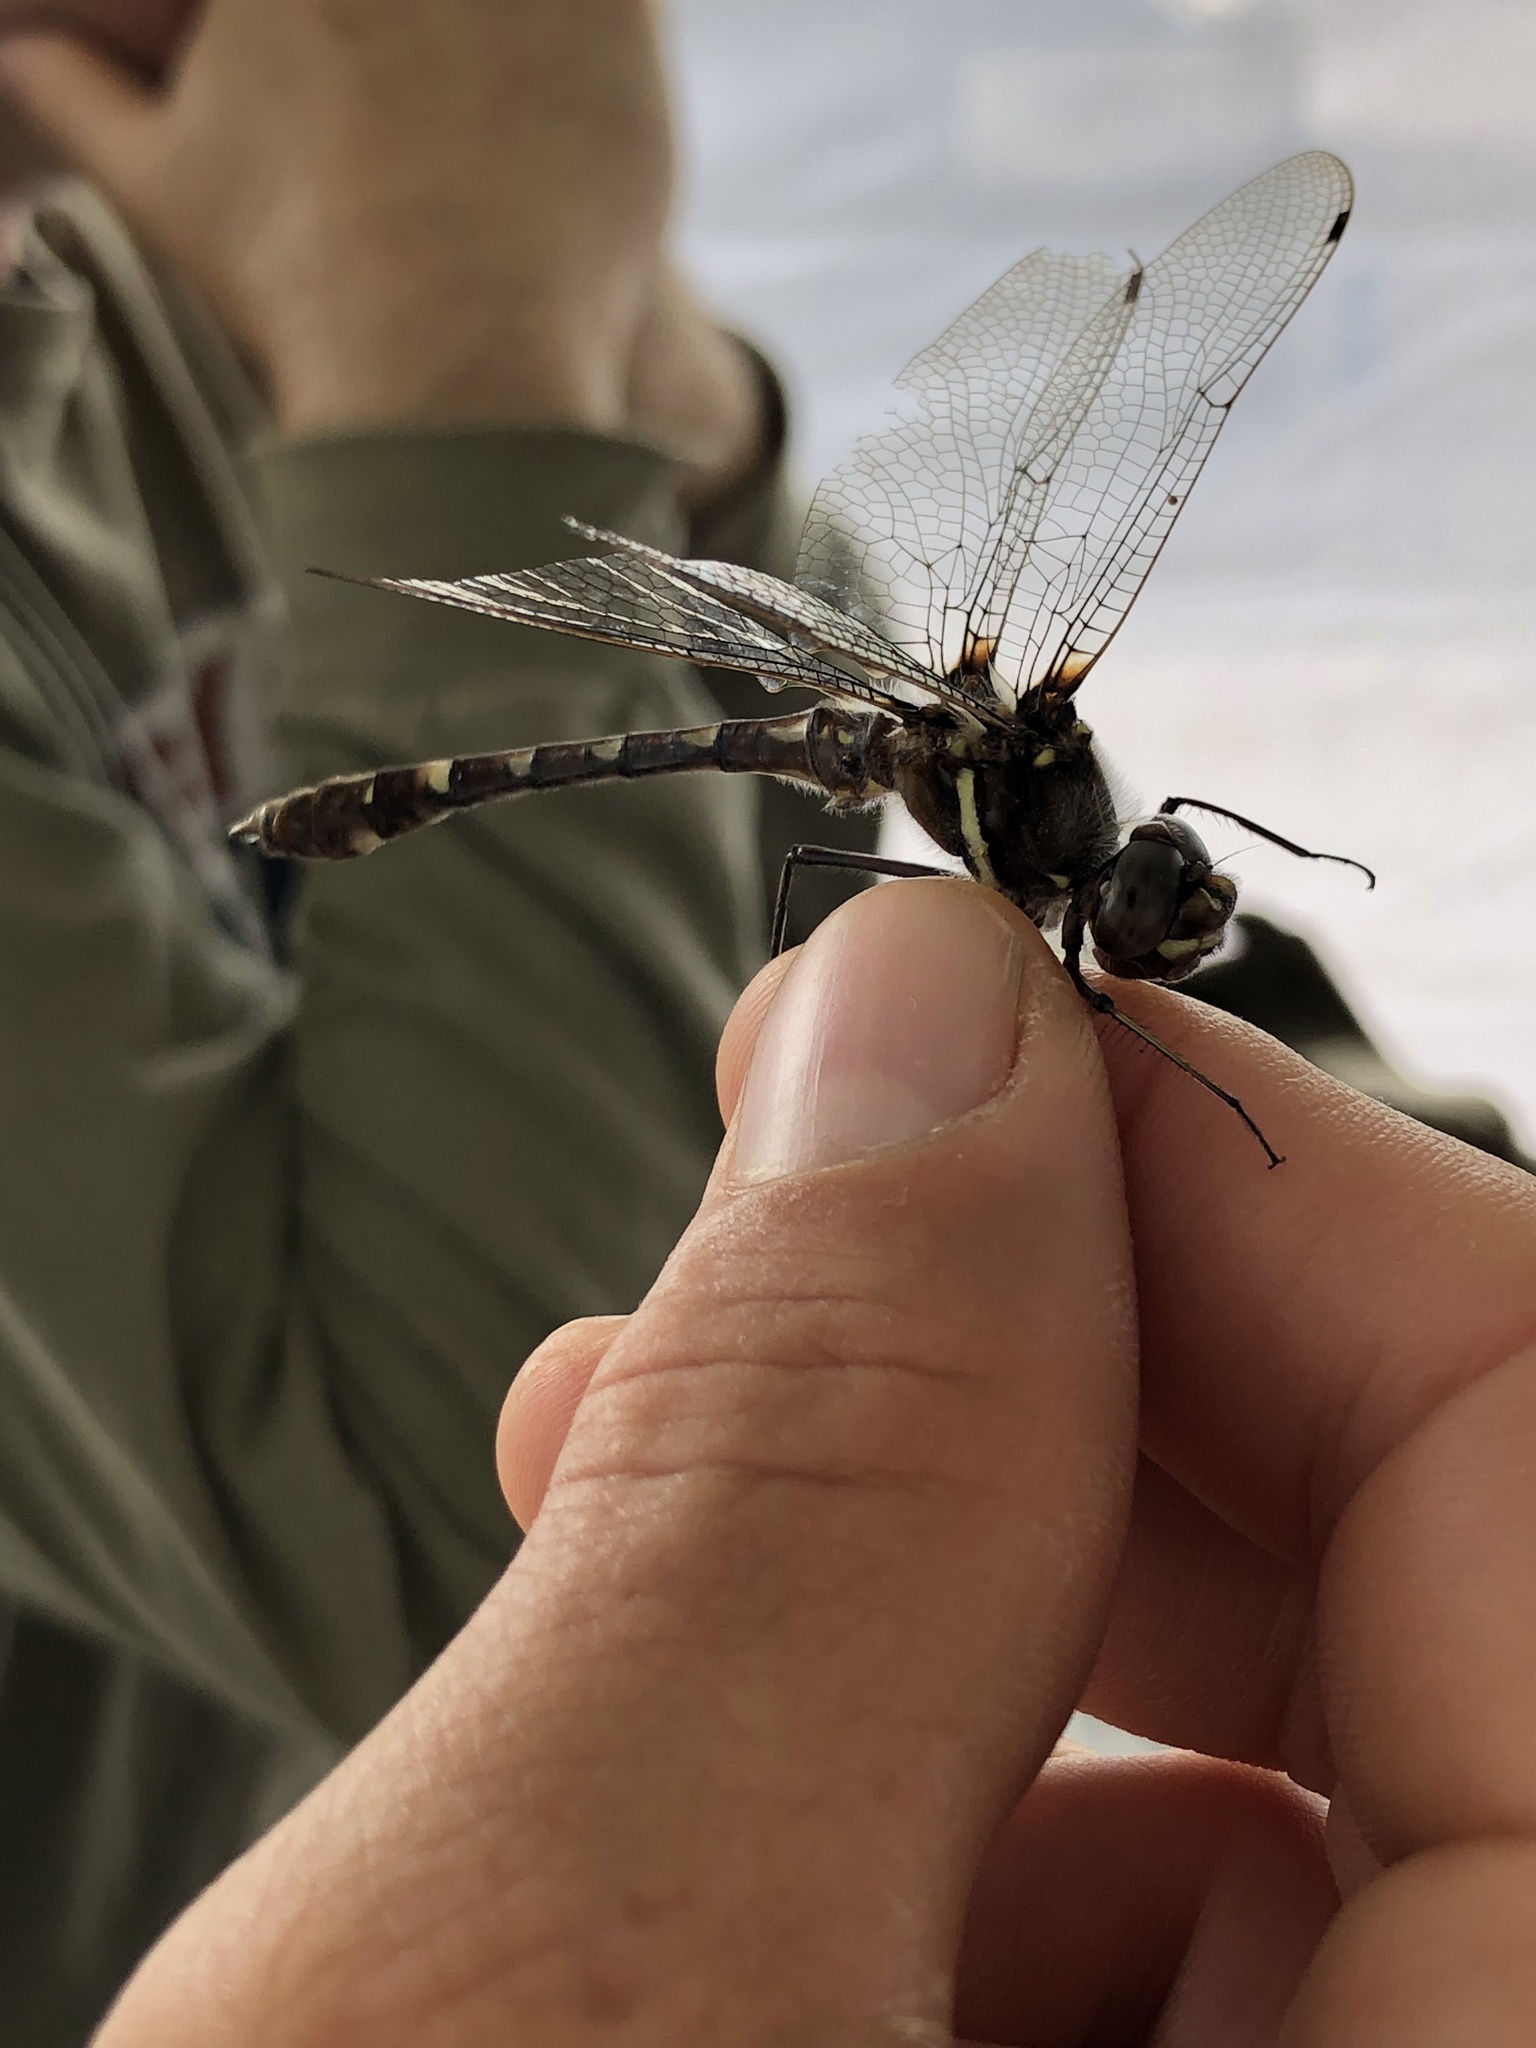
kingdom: Animalia
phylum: Arthropoda
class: Insecta
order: Odonata
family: Macromiidae
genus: Didymops
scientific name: Didymops transversa
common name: Stream cruiser
